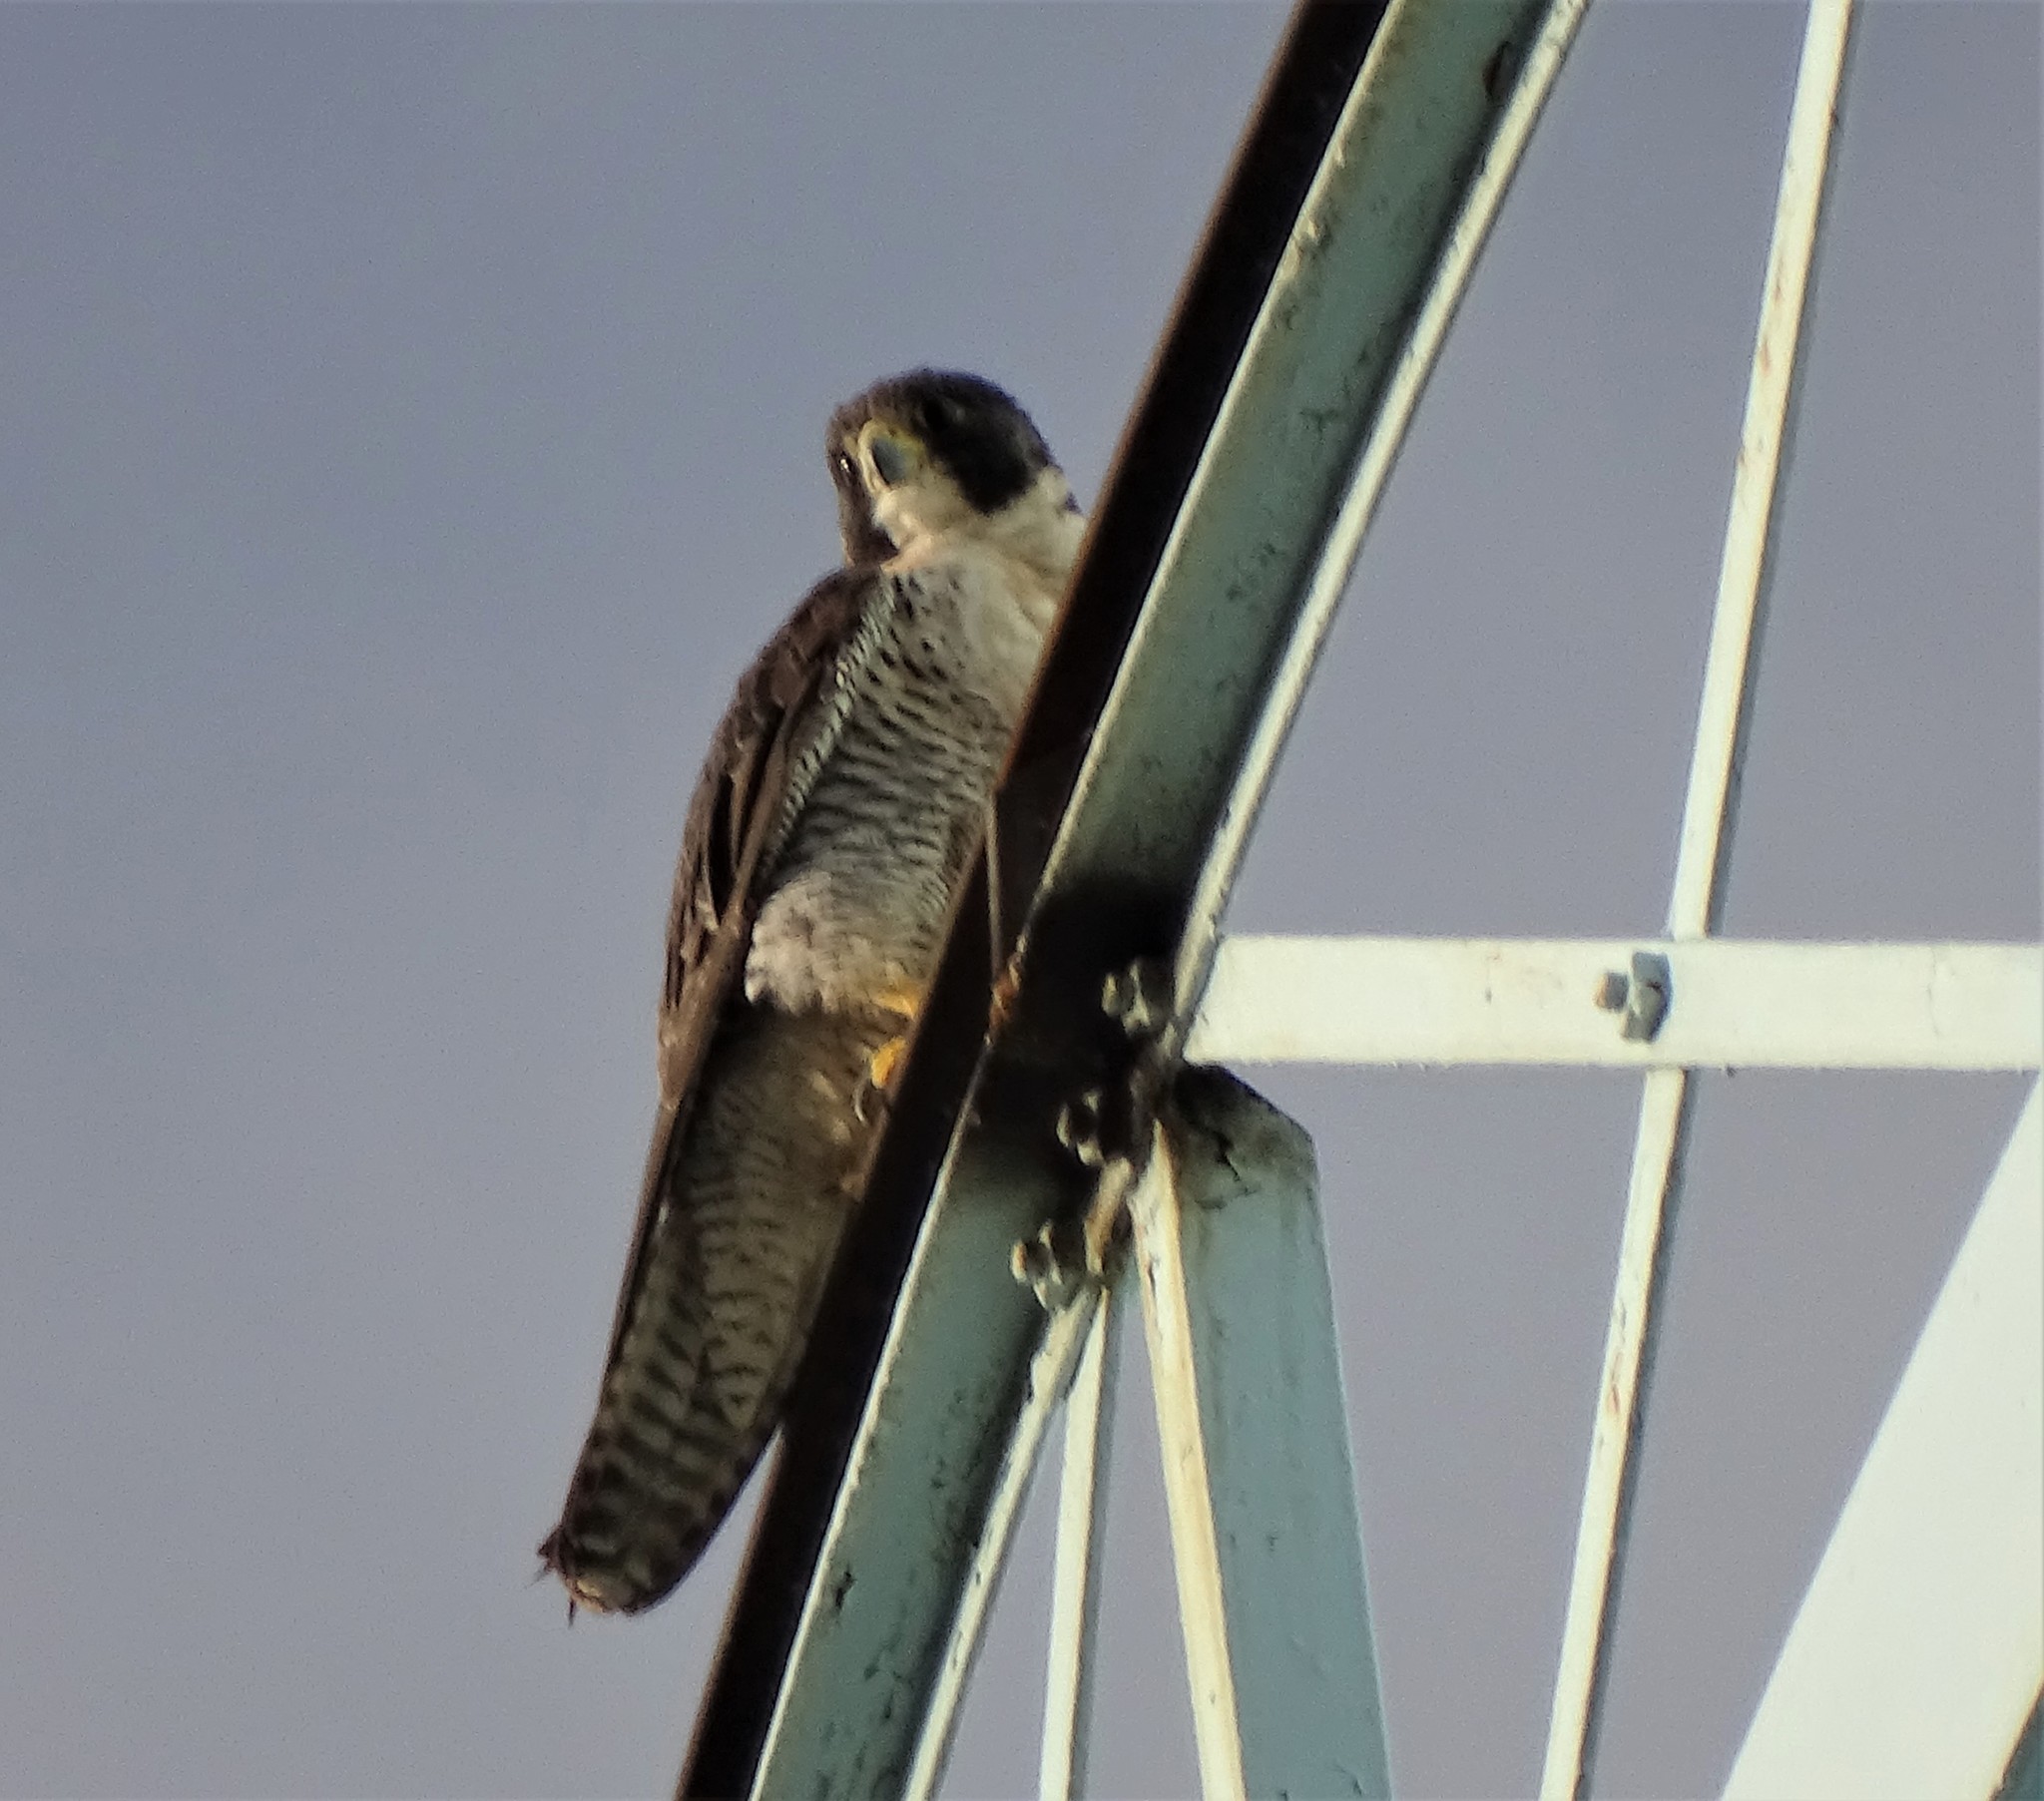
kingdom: Animalia
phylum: Chordata
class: Aves
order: Falconiformes
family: Falconidae
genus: Falco
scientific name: Falco peregrinus
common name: Peregrine falcon
